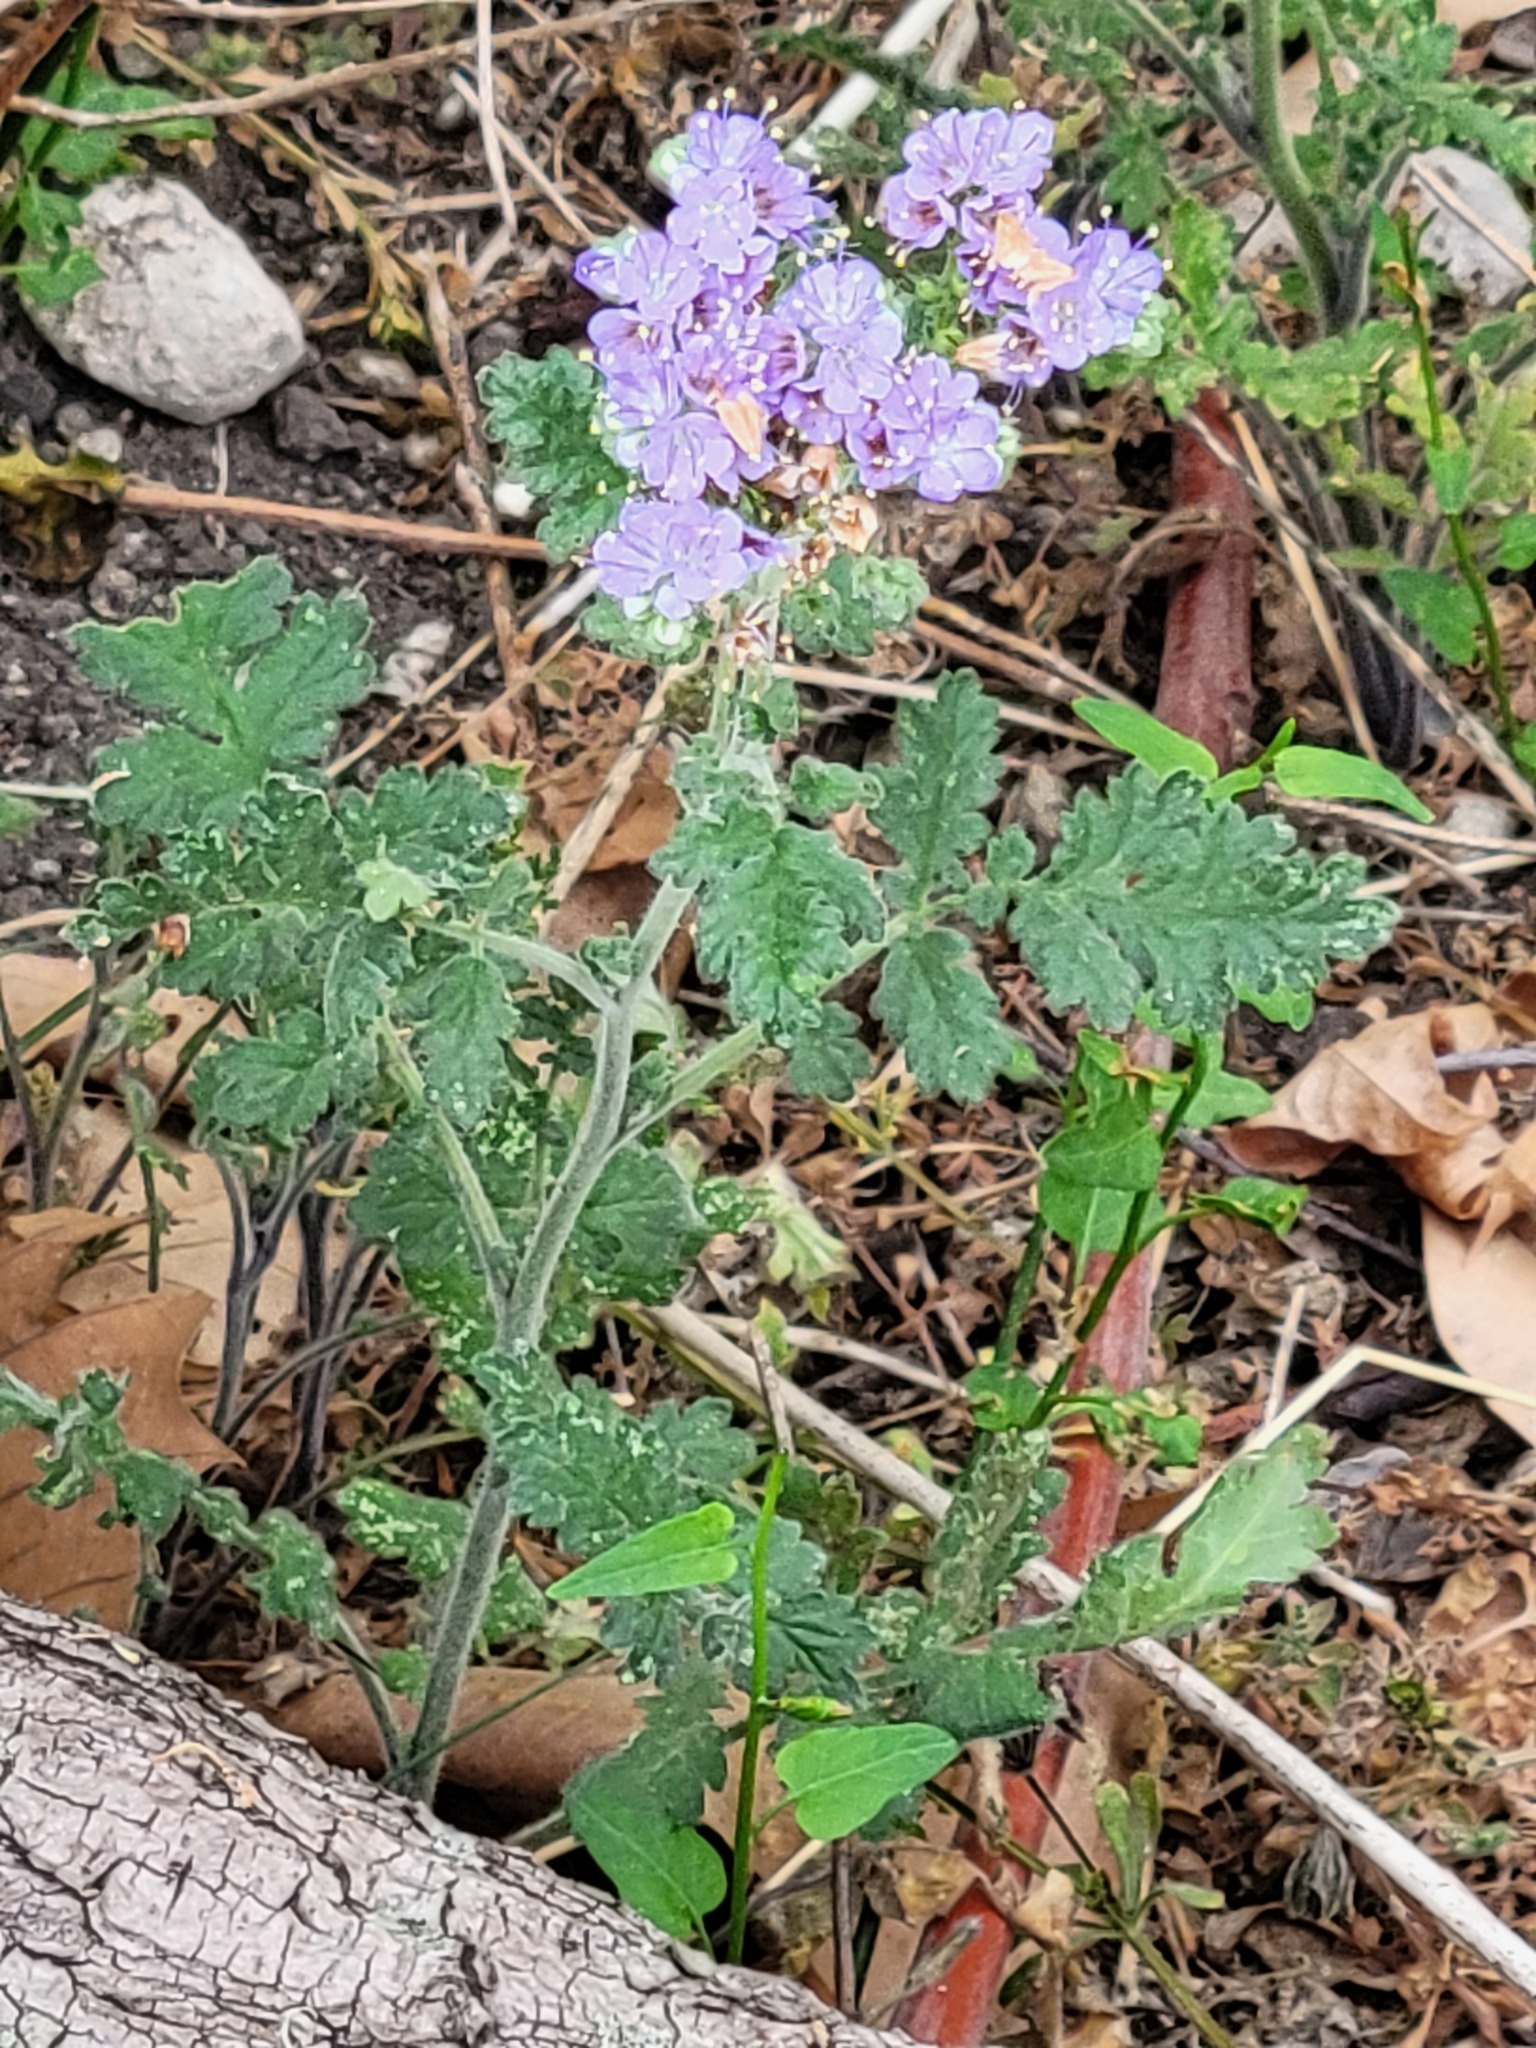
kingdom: Plantae
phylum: Tracheophyta
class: Magnoliopsida
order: Boraginales
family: Hydrophyllaceae
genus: Phacelia
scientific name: Phacelia congesta
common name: Blue curls
